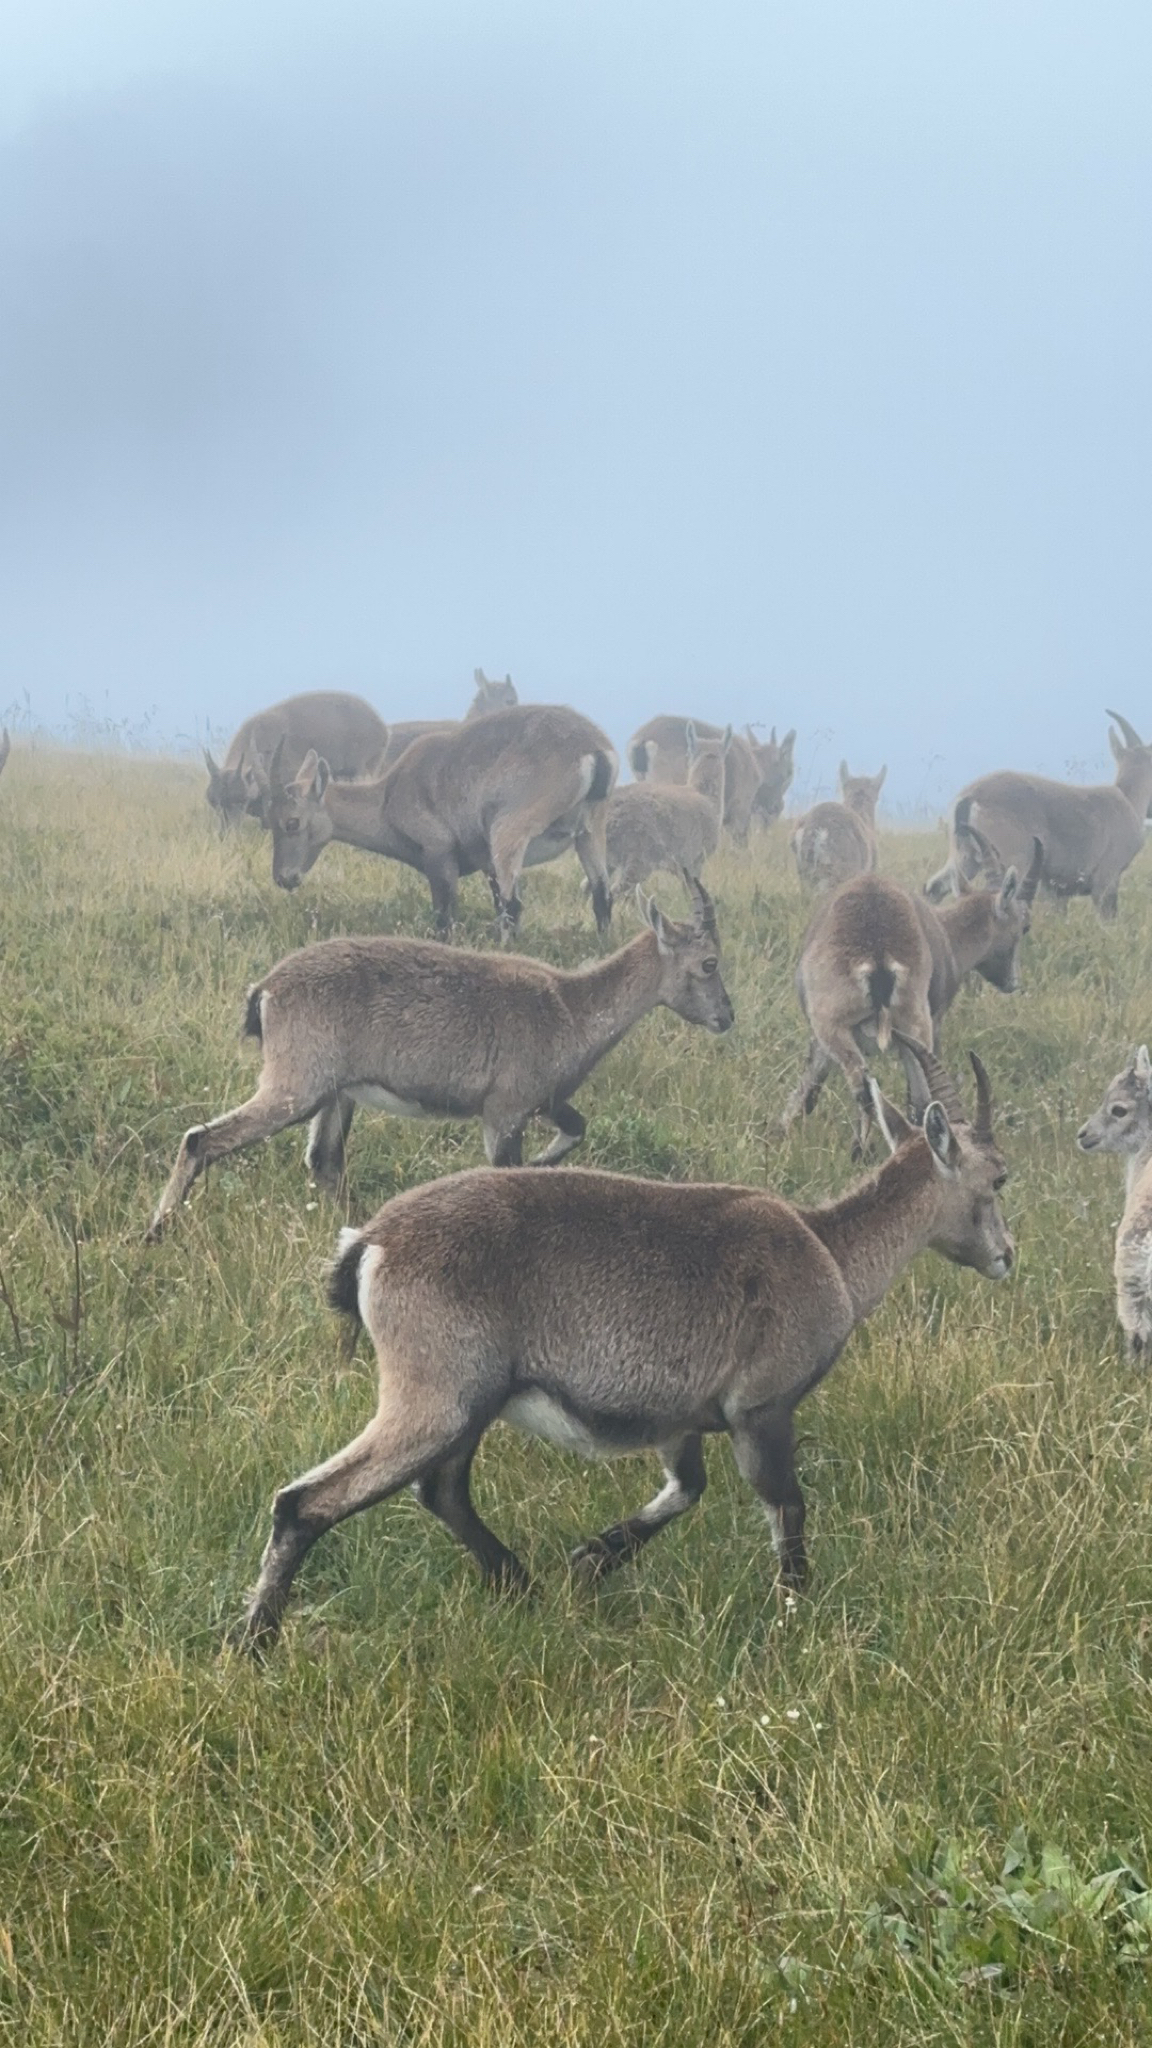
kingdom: Animalia
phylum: Chordata
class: Mammalia
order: Artiodactyla
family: Bovidae
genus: Capra
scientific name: Capra ibex
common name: Alpine ibex
